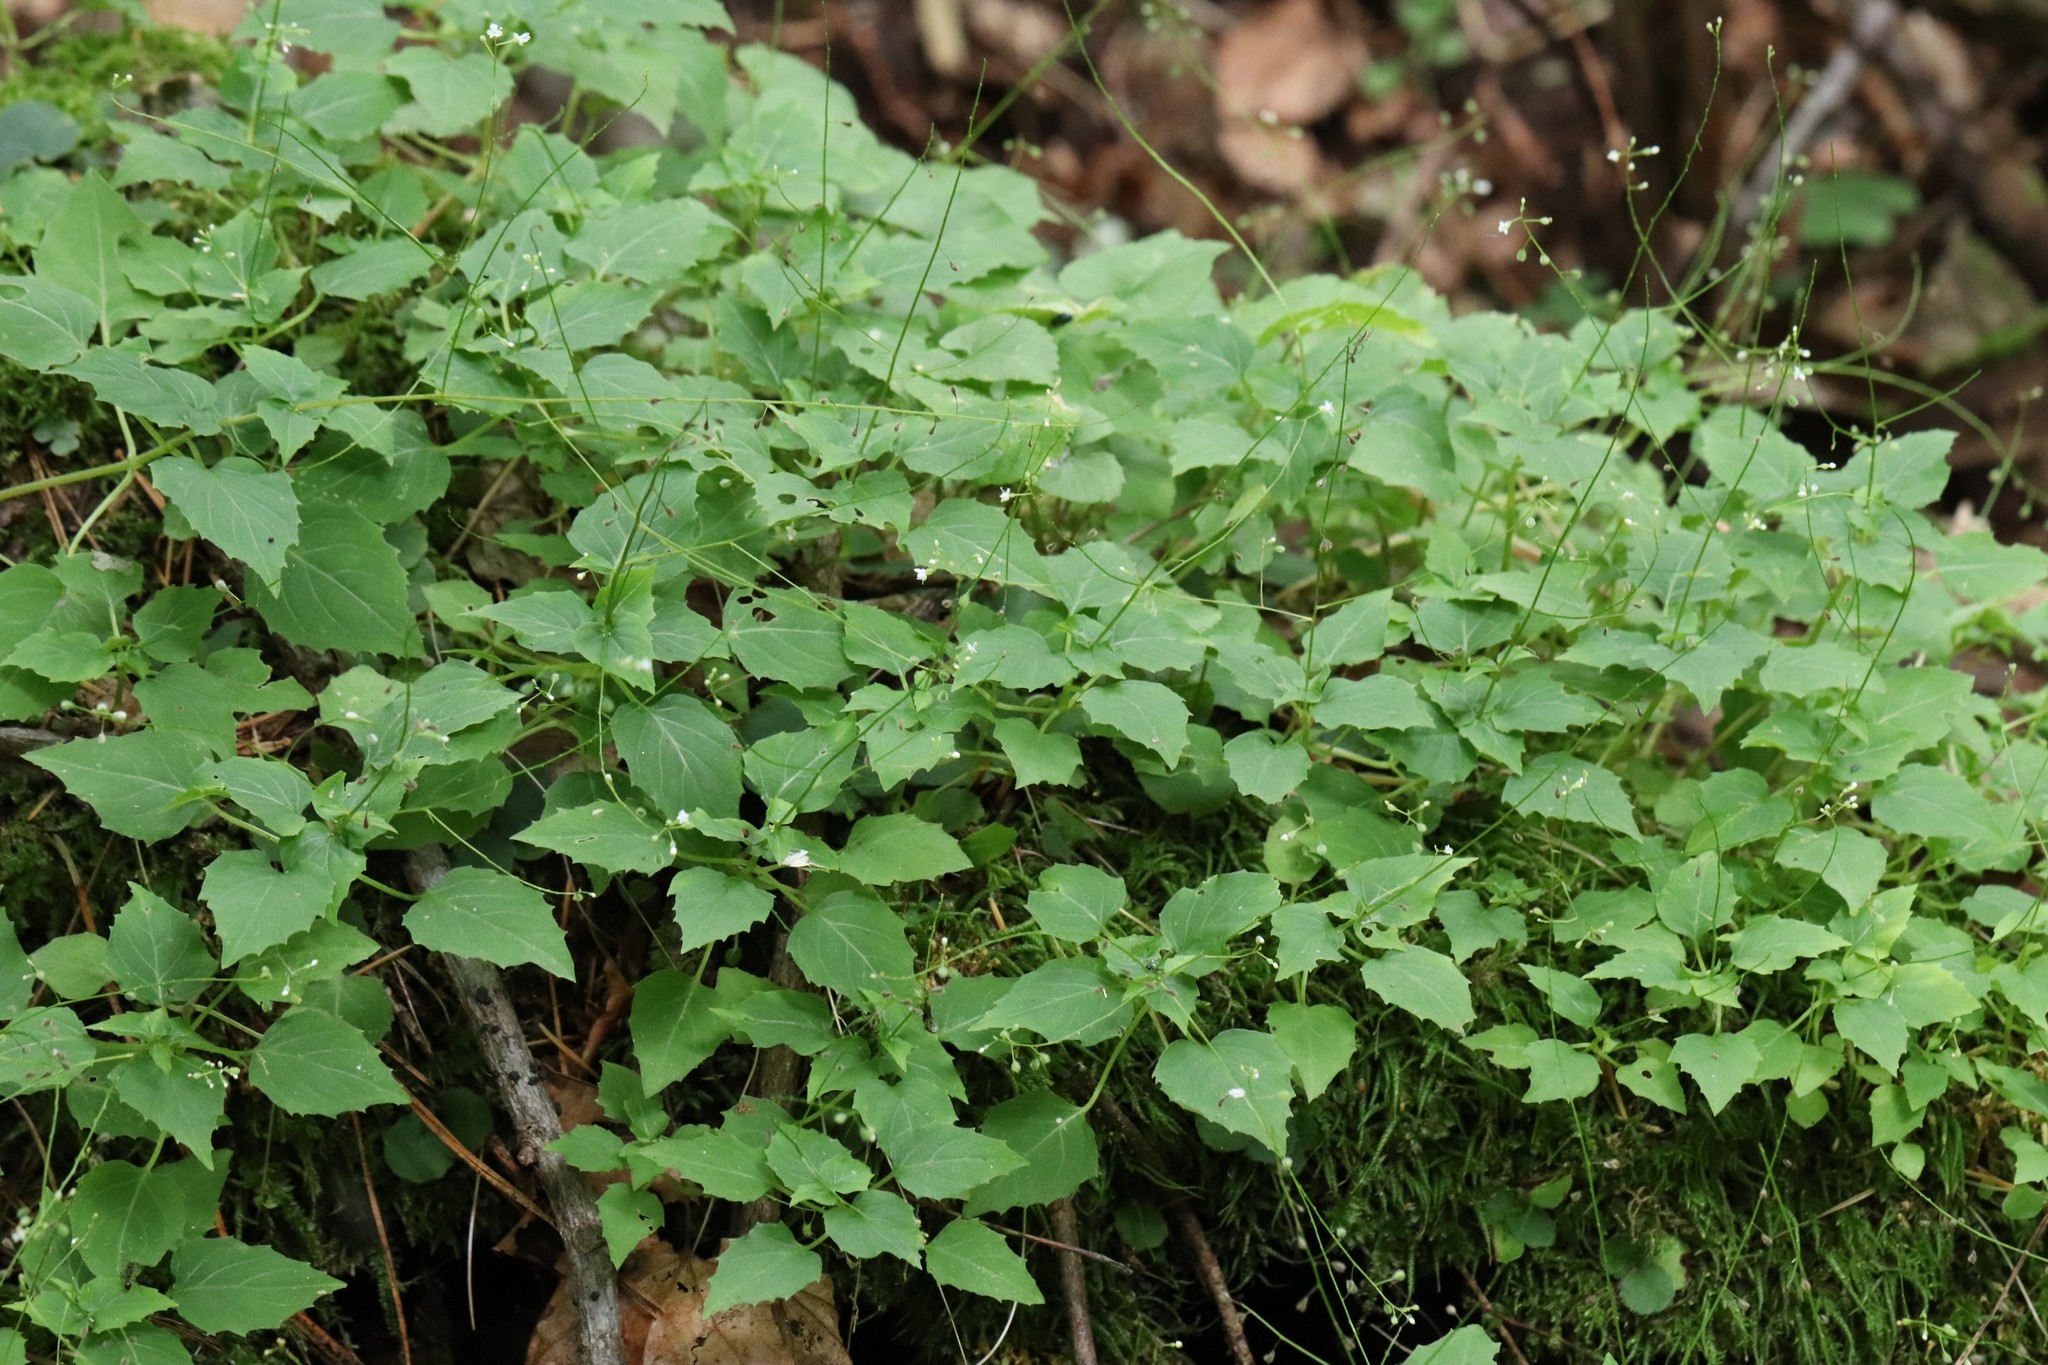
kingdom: Plantae
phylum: Tracheophyta
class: Magnoliopsida
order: Myrtales
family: Onagraceae
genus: Circaea
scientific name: Circaea alpina
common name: Alpine enchanter's-nightshade
